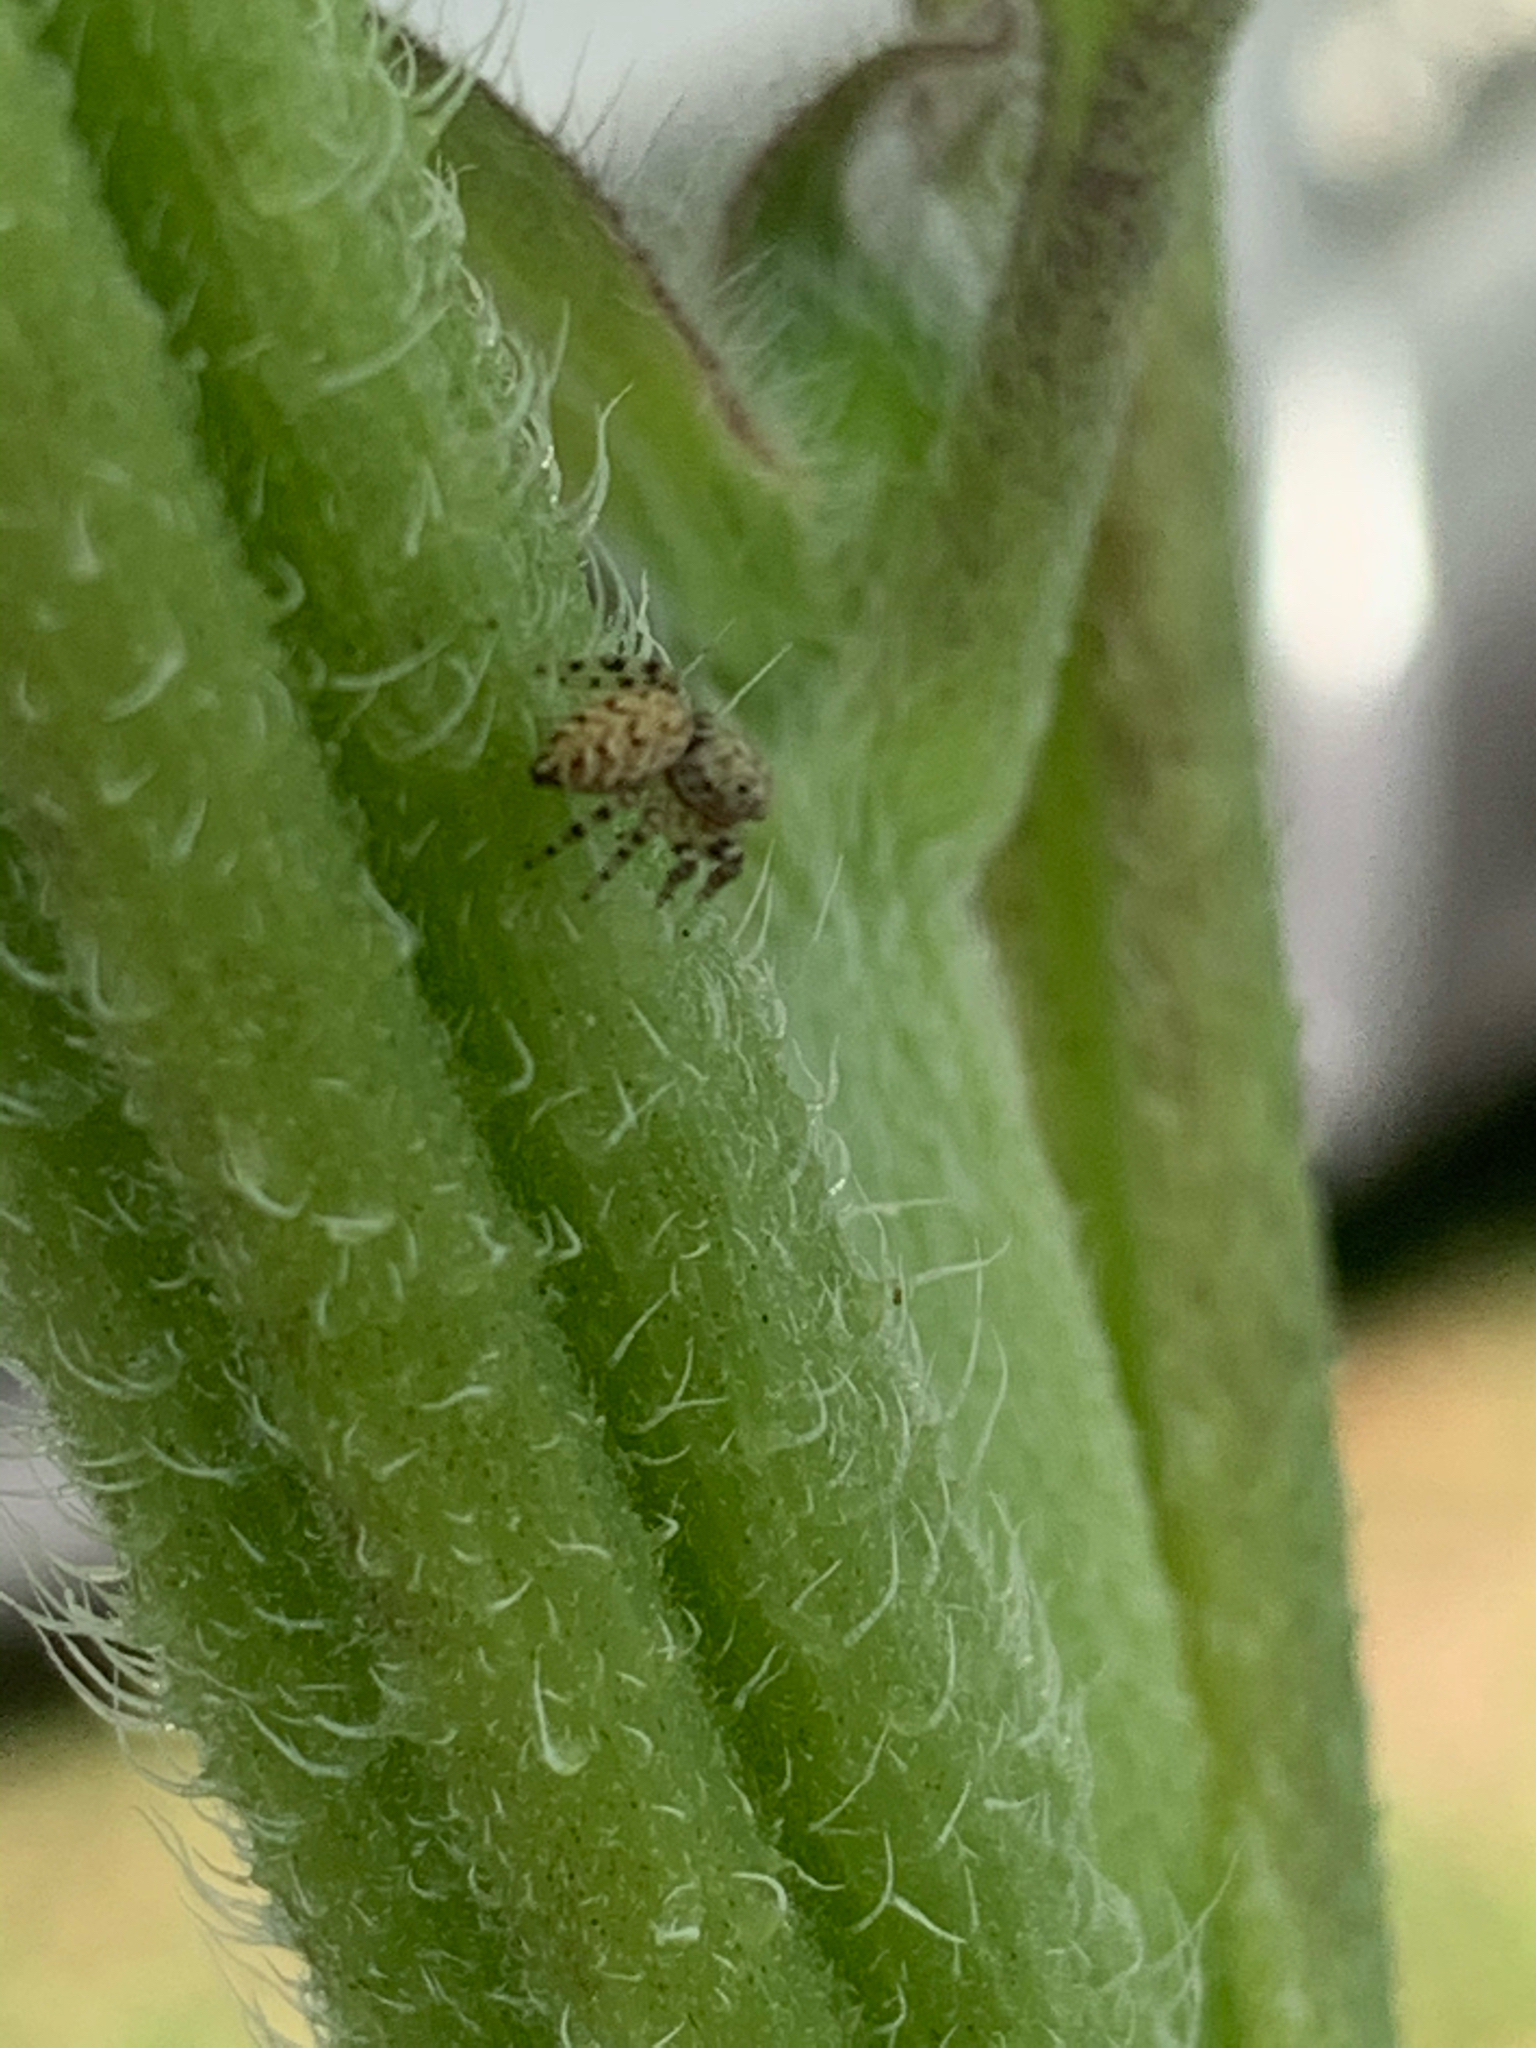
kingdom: Animalia
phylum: Arthropoda
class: Arachnida
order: Araneae
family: Salticidae
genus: Pelegrina
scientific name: Pelegrina
